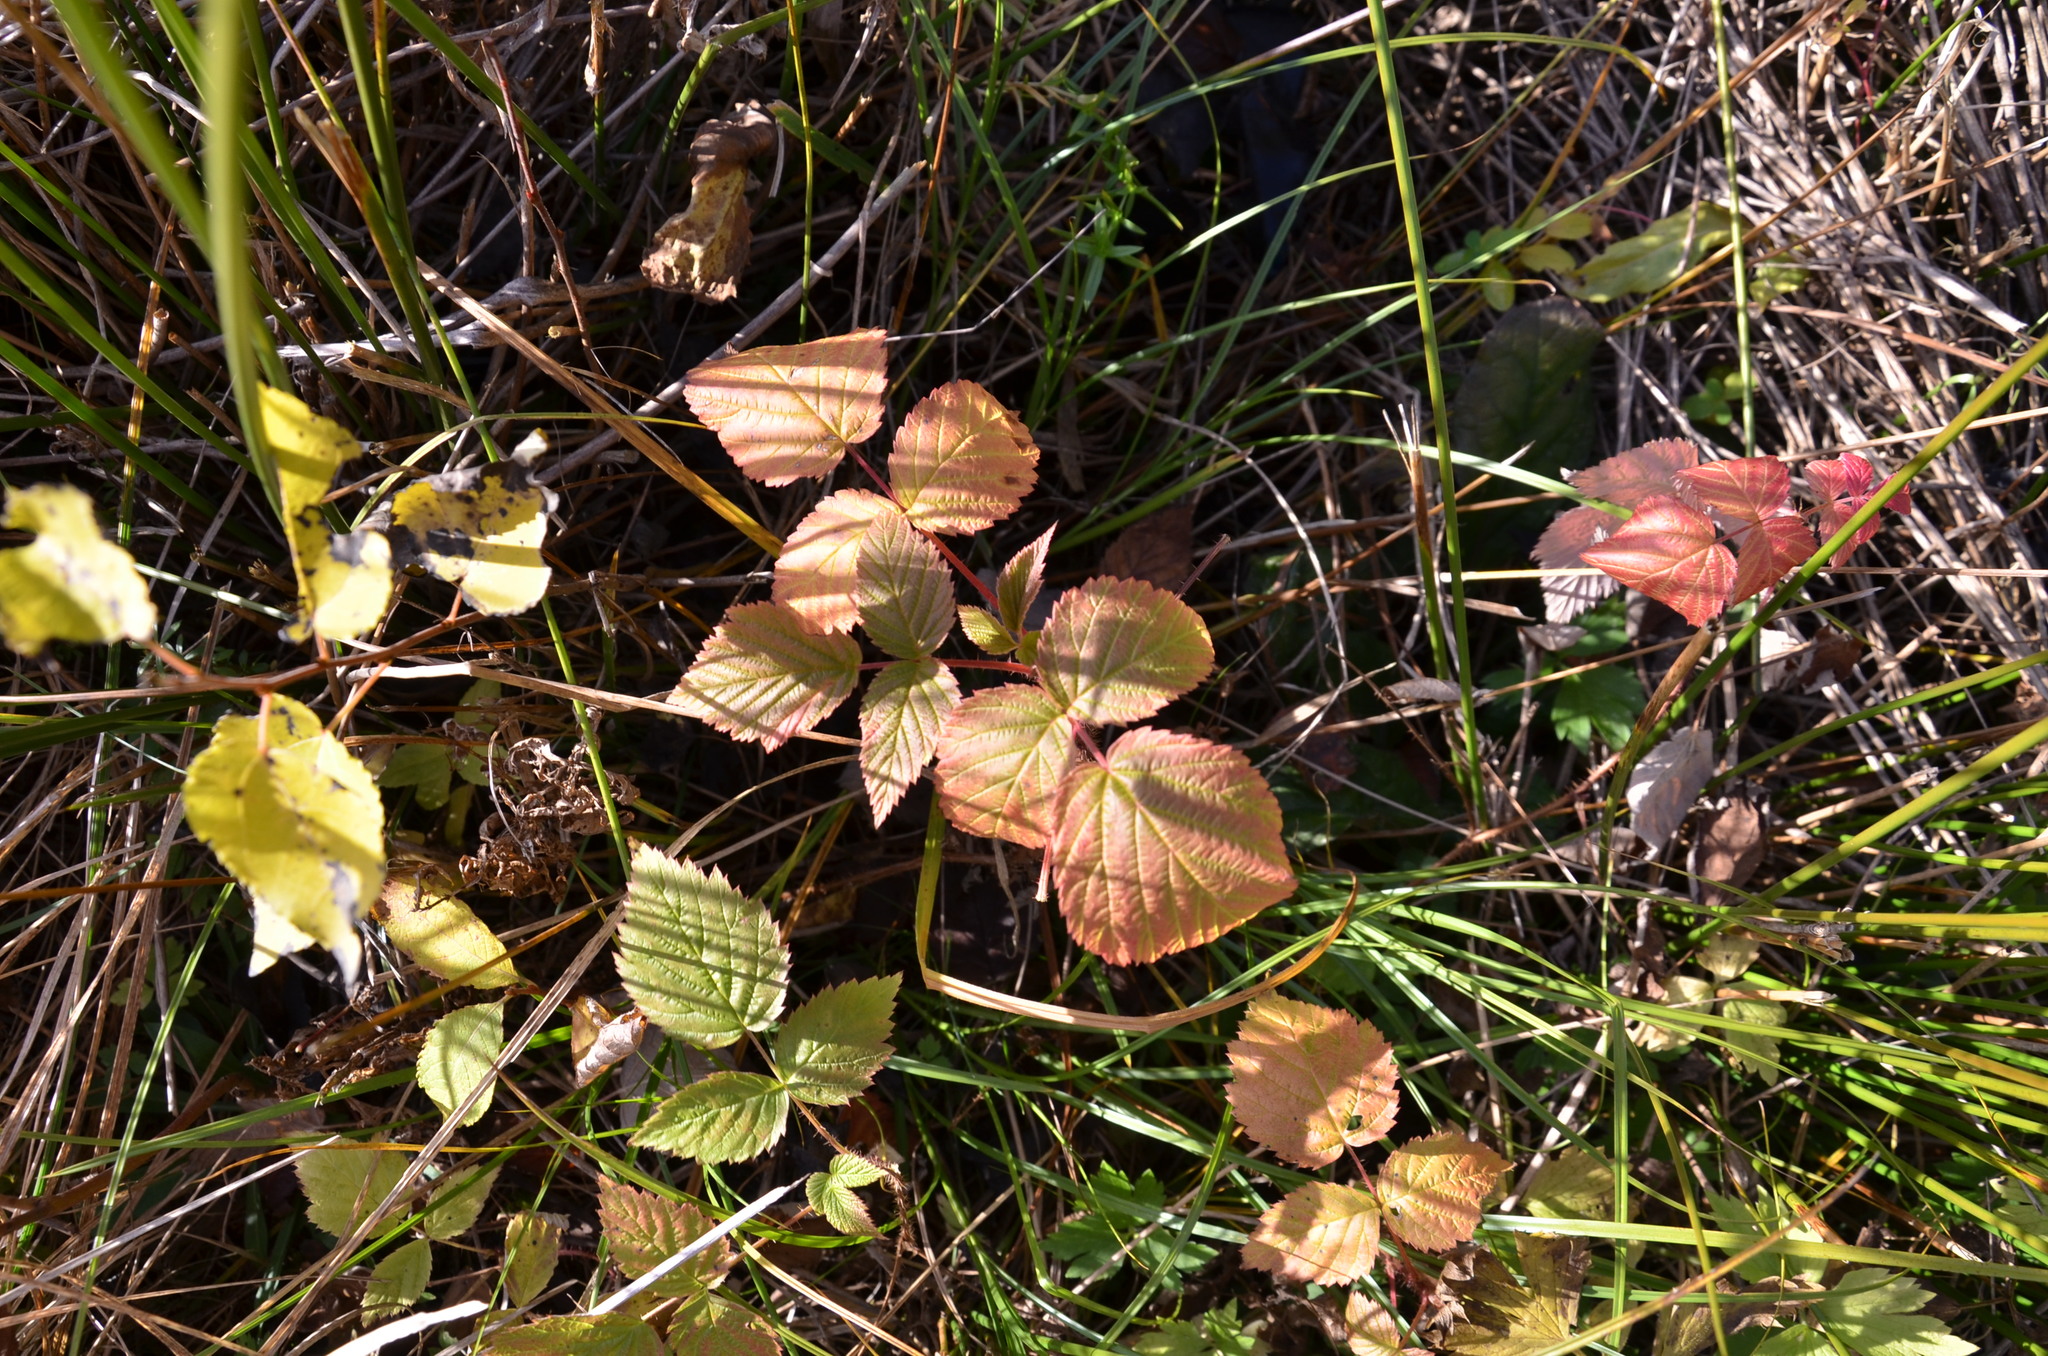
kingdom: Plantae
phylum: Tracheophyta
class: Magnoliopsida
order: Rosales
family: Rosaceae
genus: Rubus
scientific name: Rubus idaeus
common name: Raspberry
